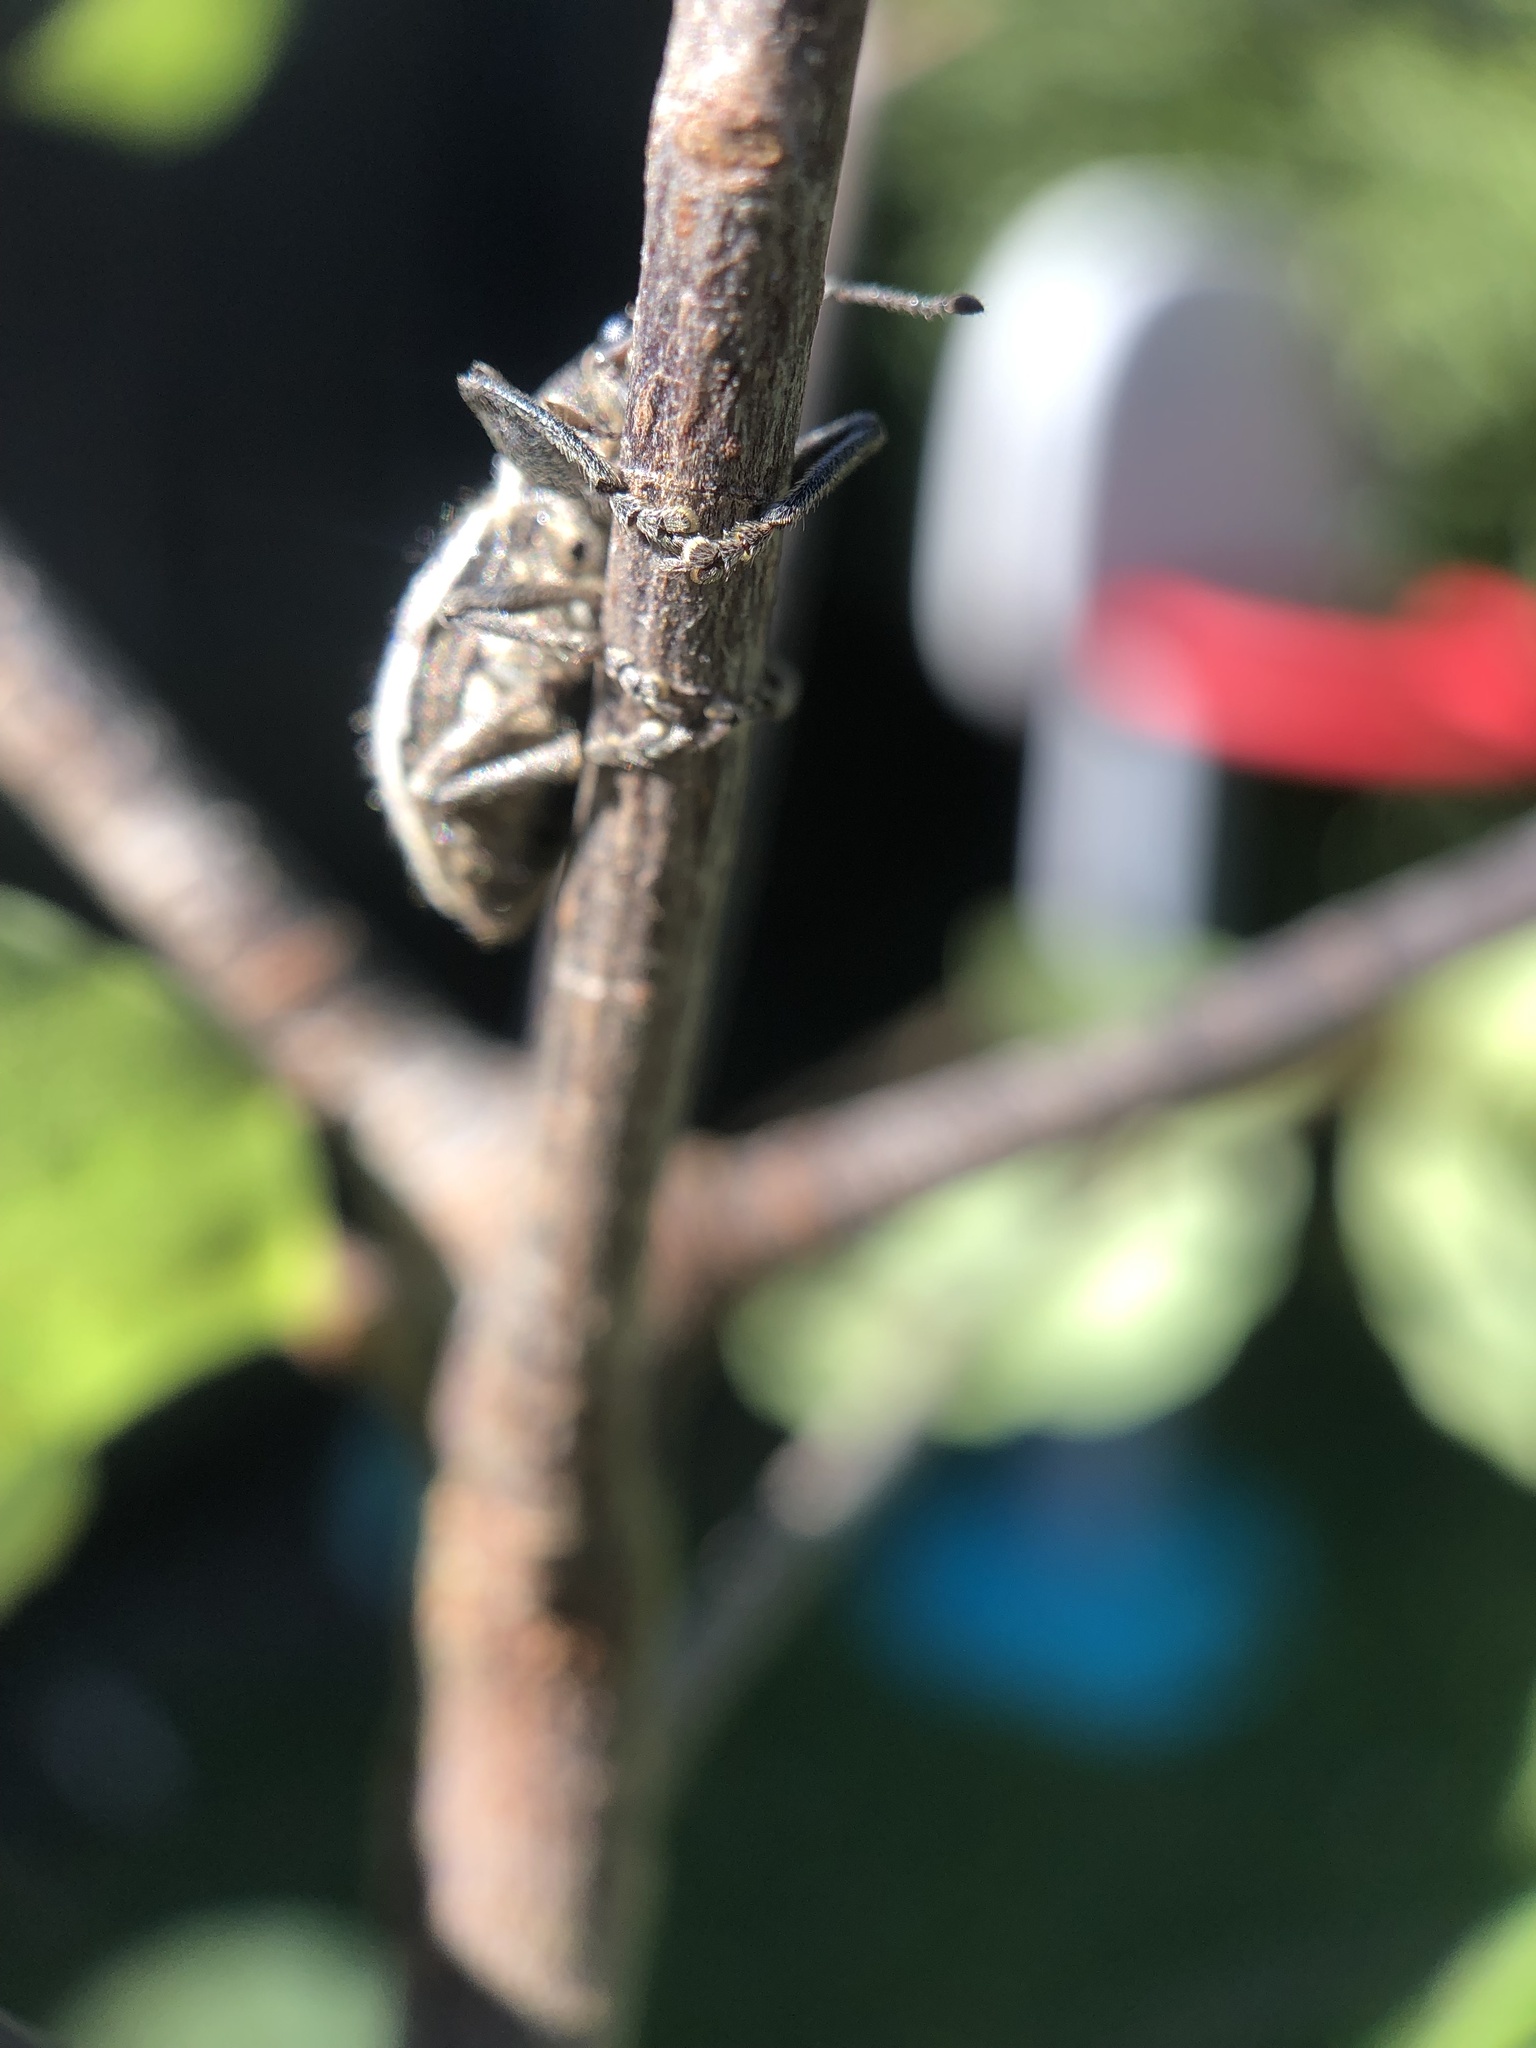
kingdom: Animalia
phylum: Arthropoda
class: Insecta
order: Coleoptera
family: Curculionidae
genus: Naupactus
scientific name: Naupactus leucoloma
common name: Whitefringed beetle
